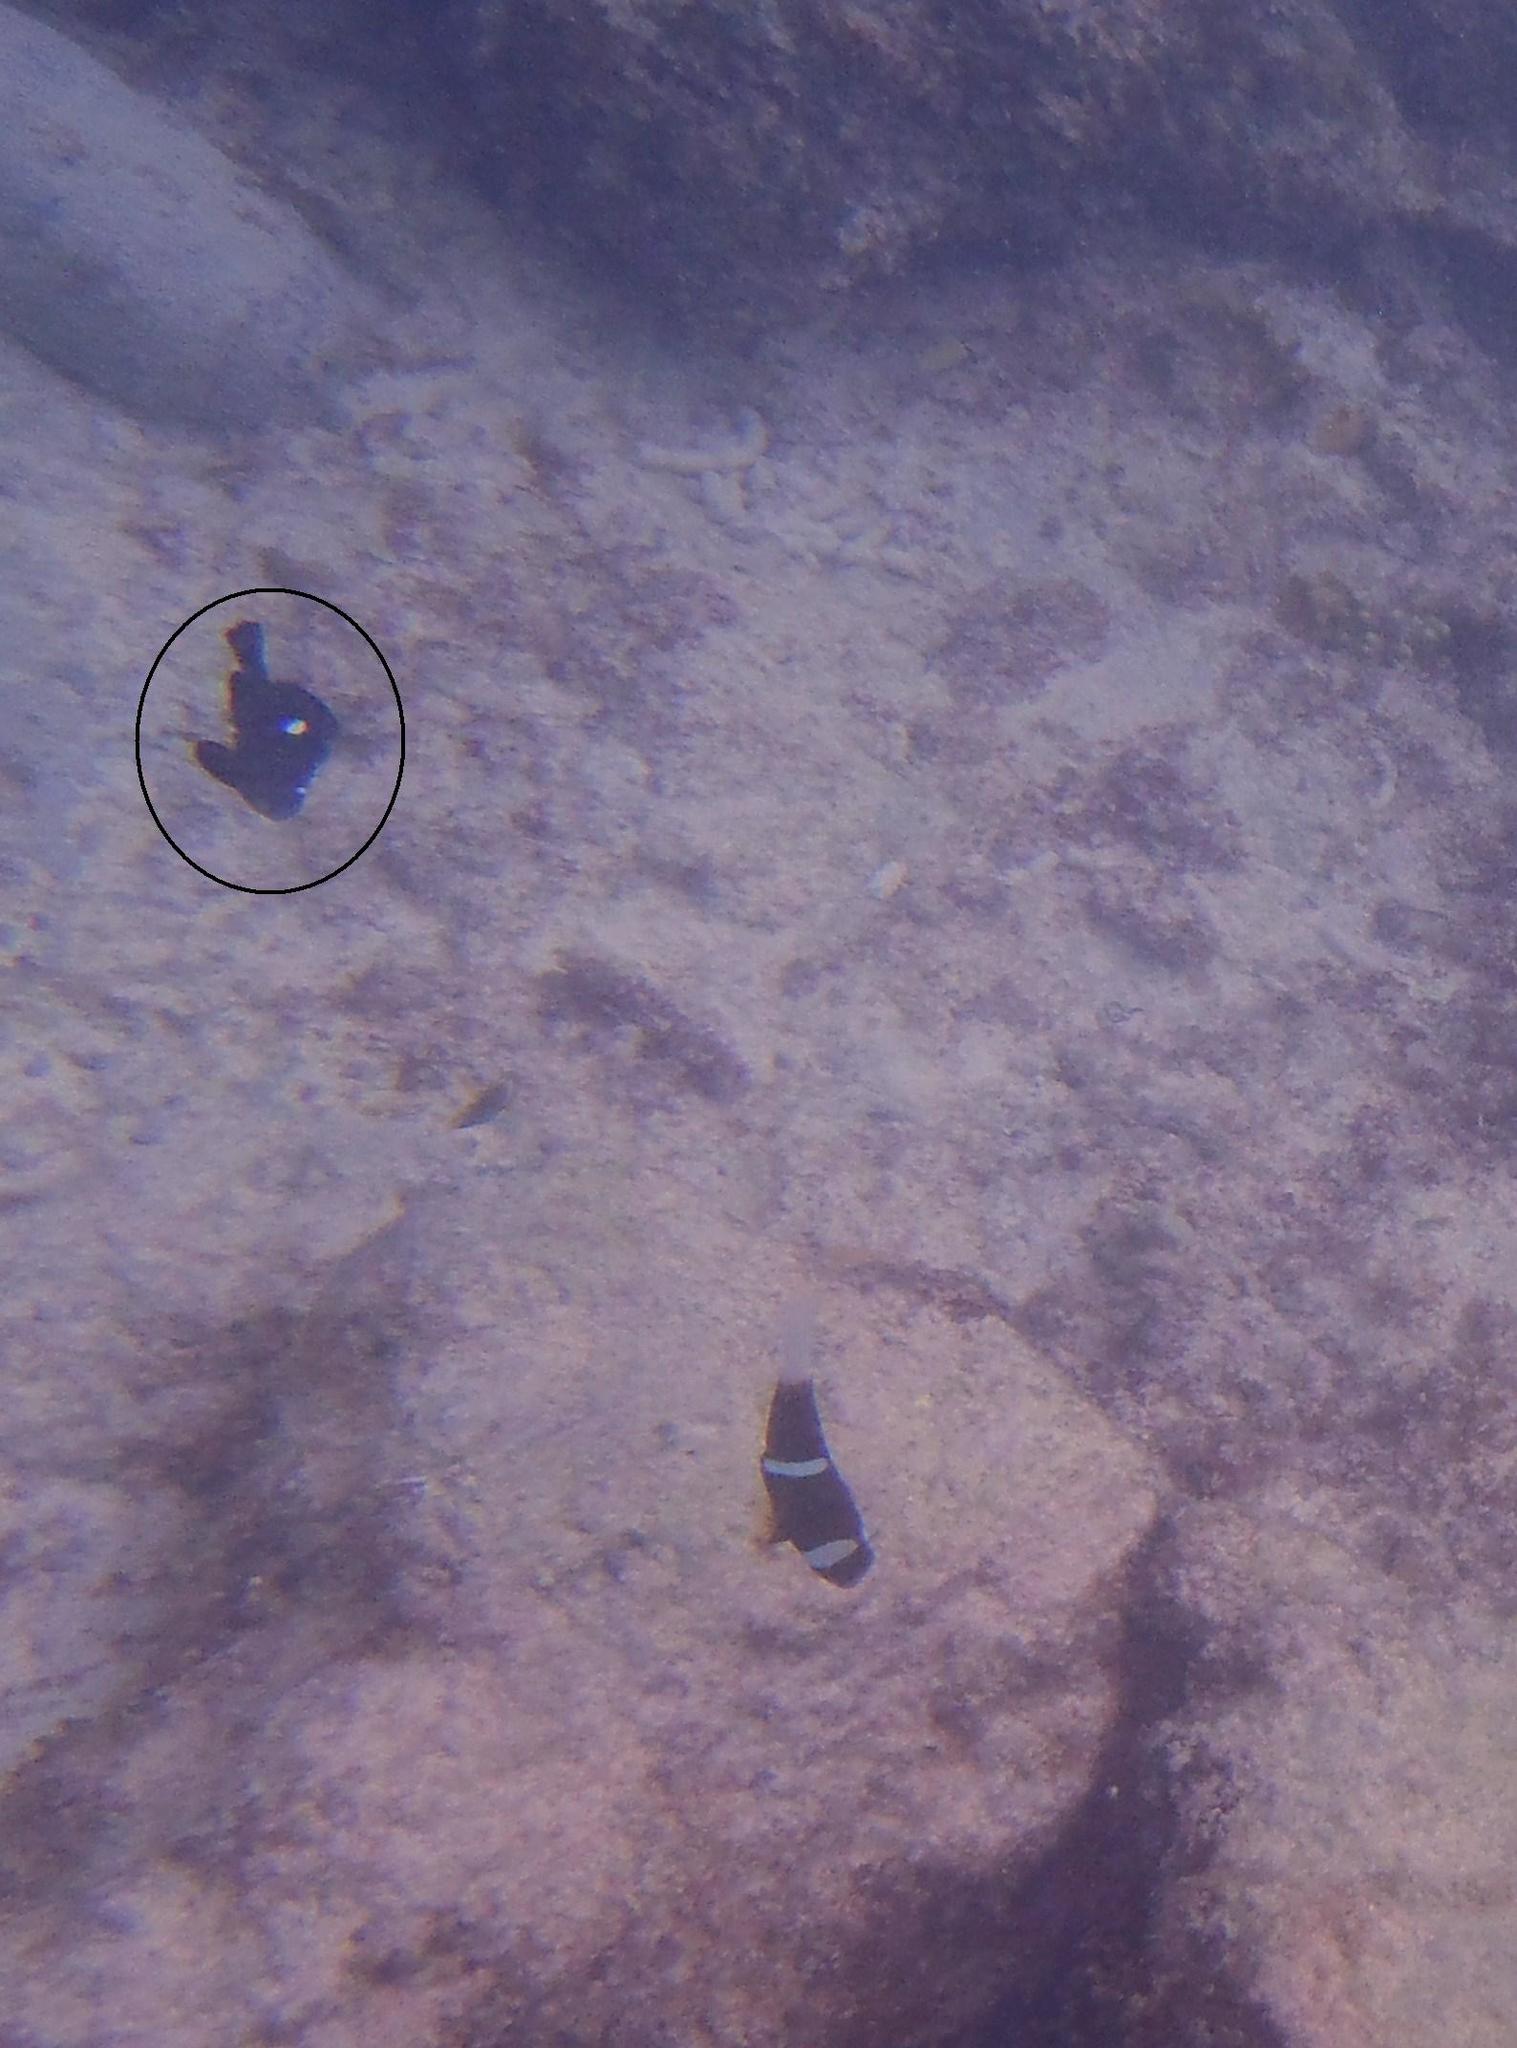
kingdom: Animalia
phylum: Chordata
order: Perciformes
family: Pomacentridae
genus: Dascyllus
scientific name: Dascyllus trimaculatus
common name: Threespot dascyllus
